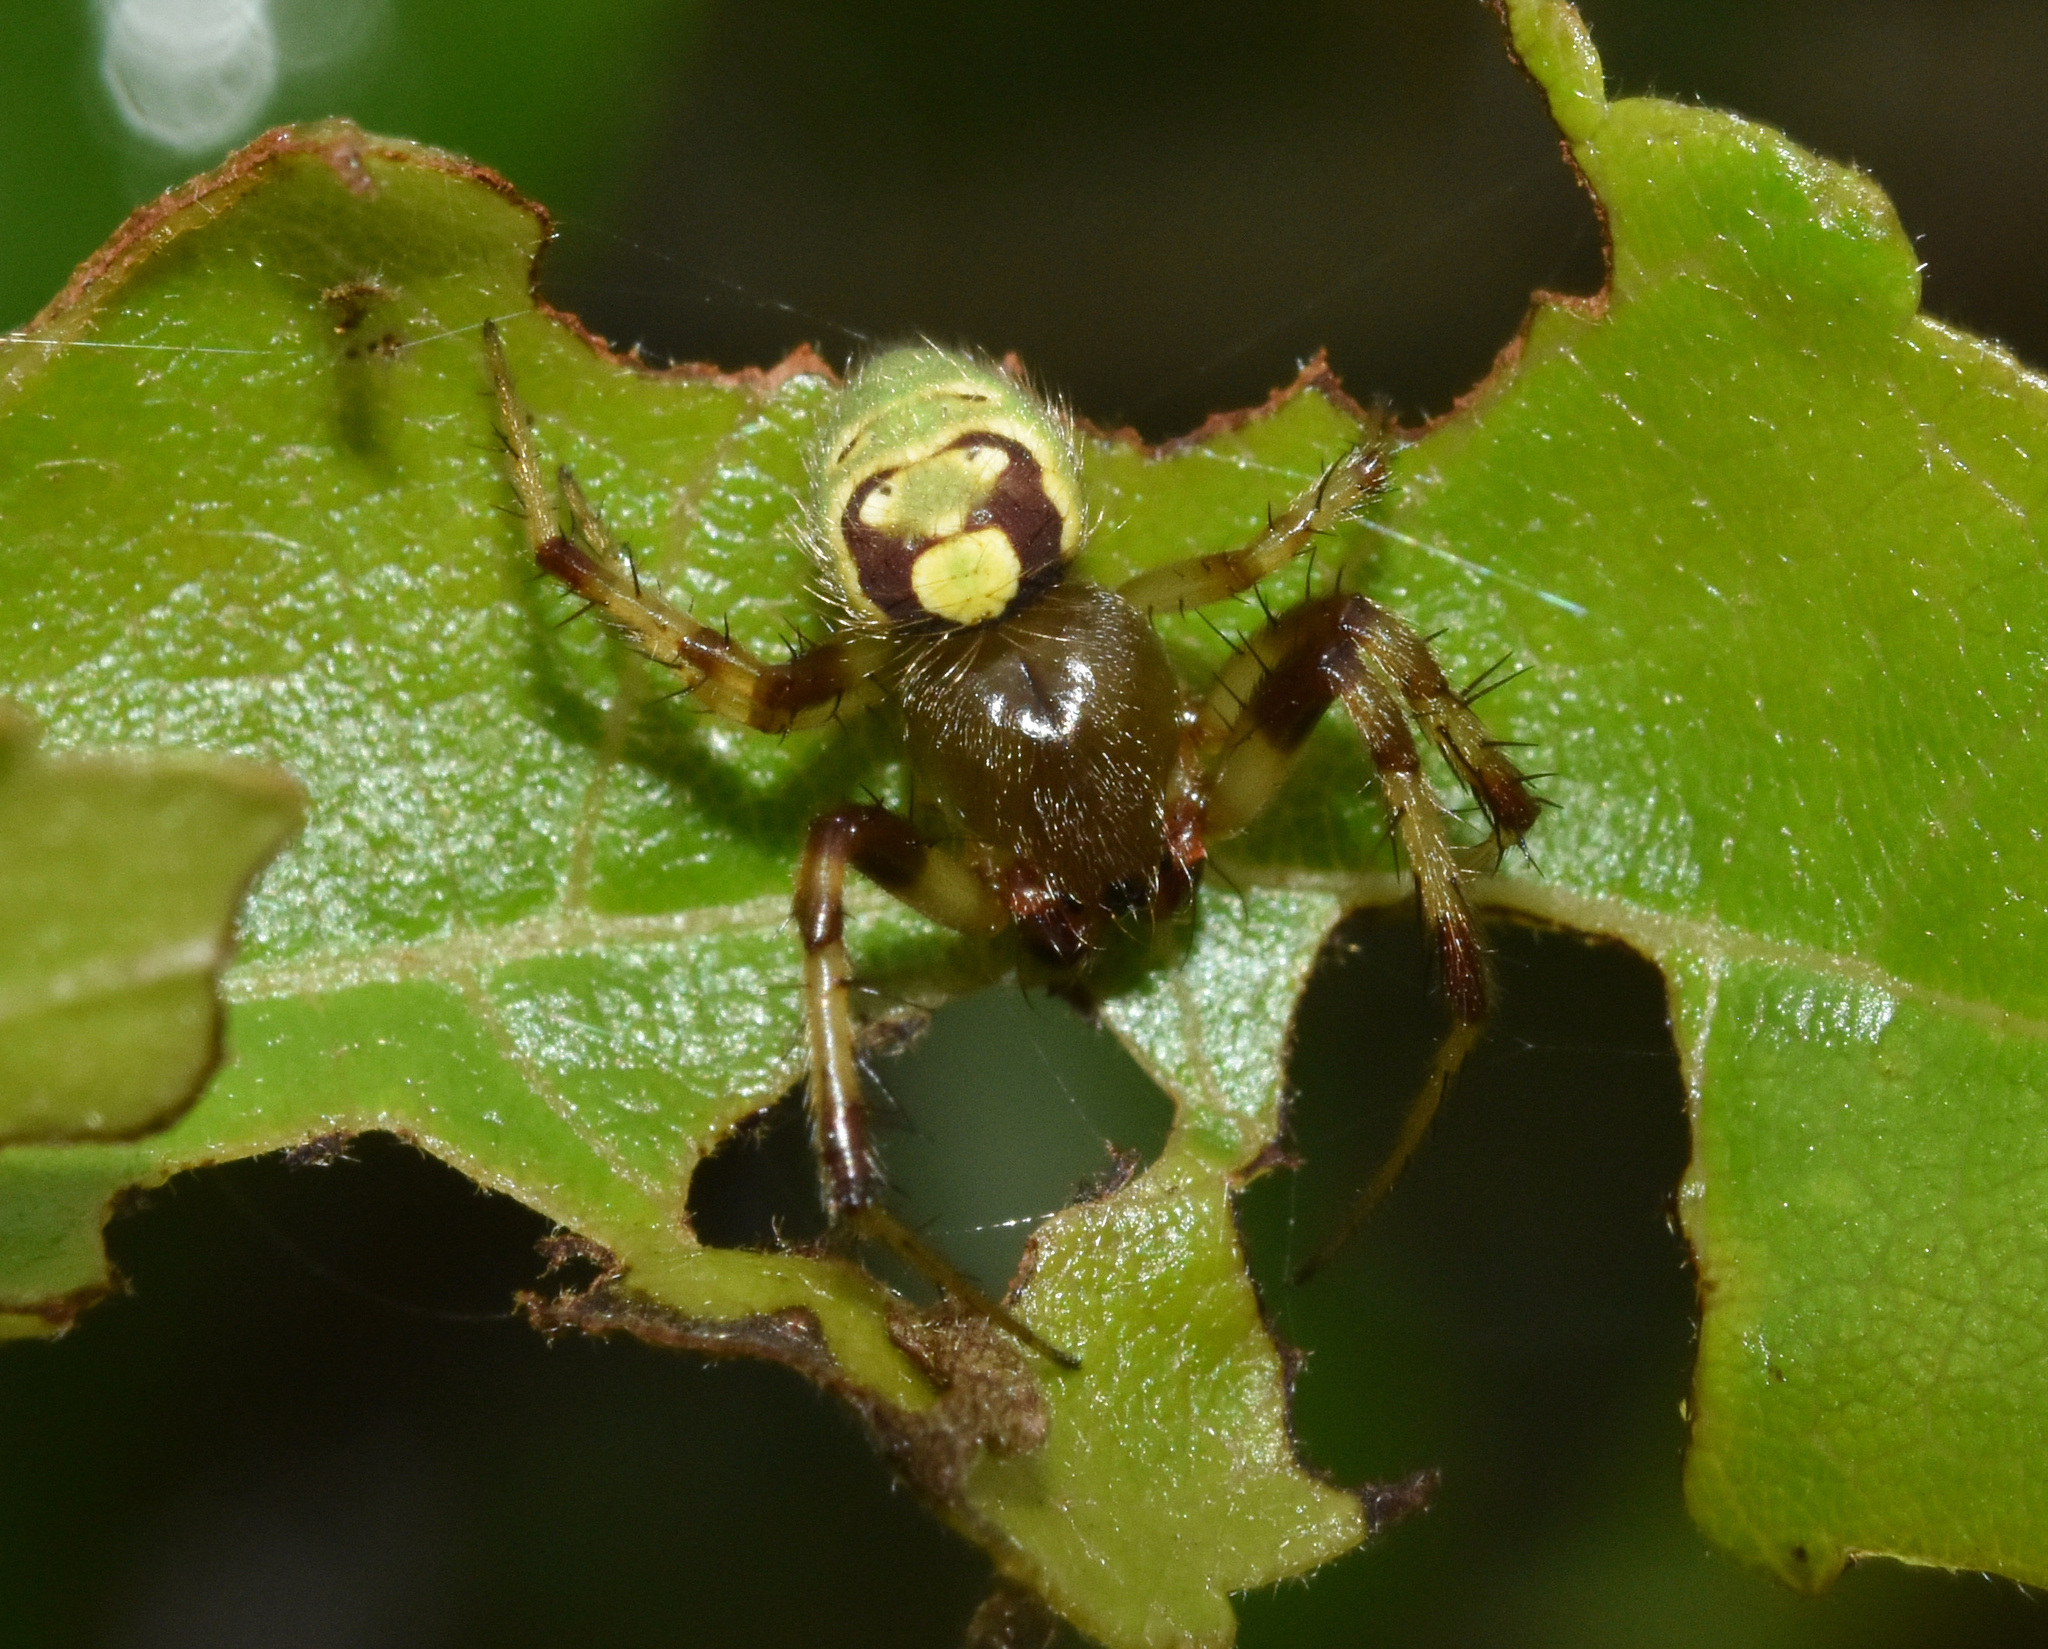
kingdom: Animalia
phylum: Arthropoda
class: Arachnida
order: Araneae
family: Araneidae
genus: Araneus
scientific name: Araneus apricus
